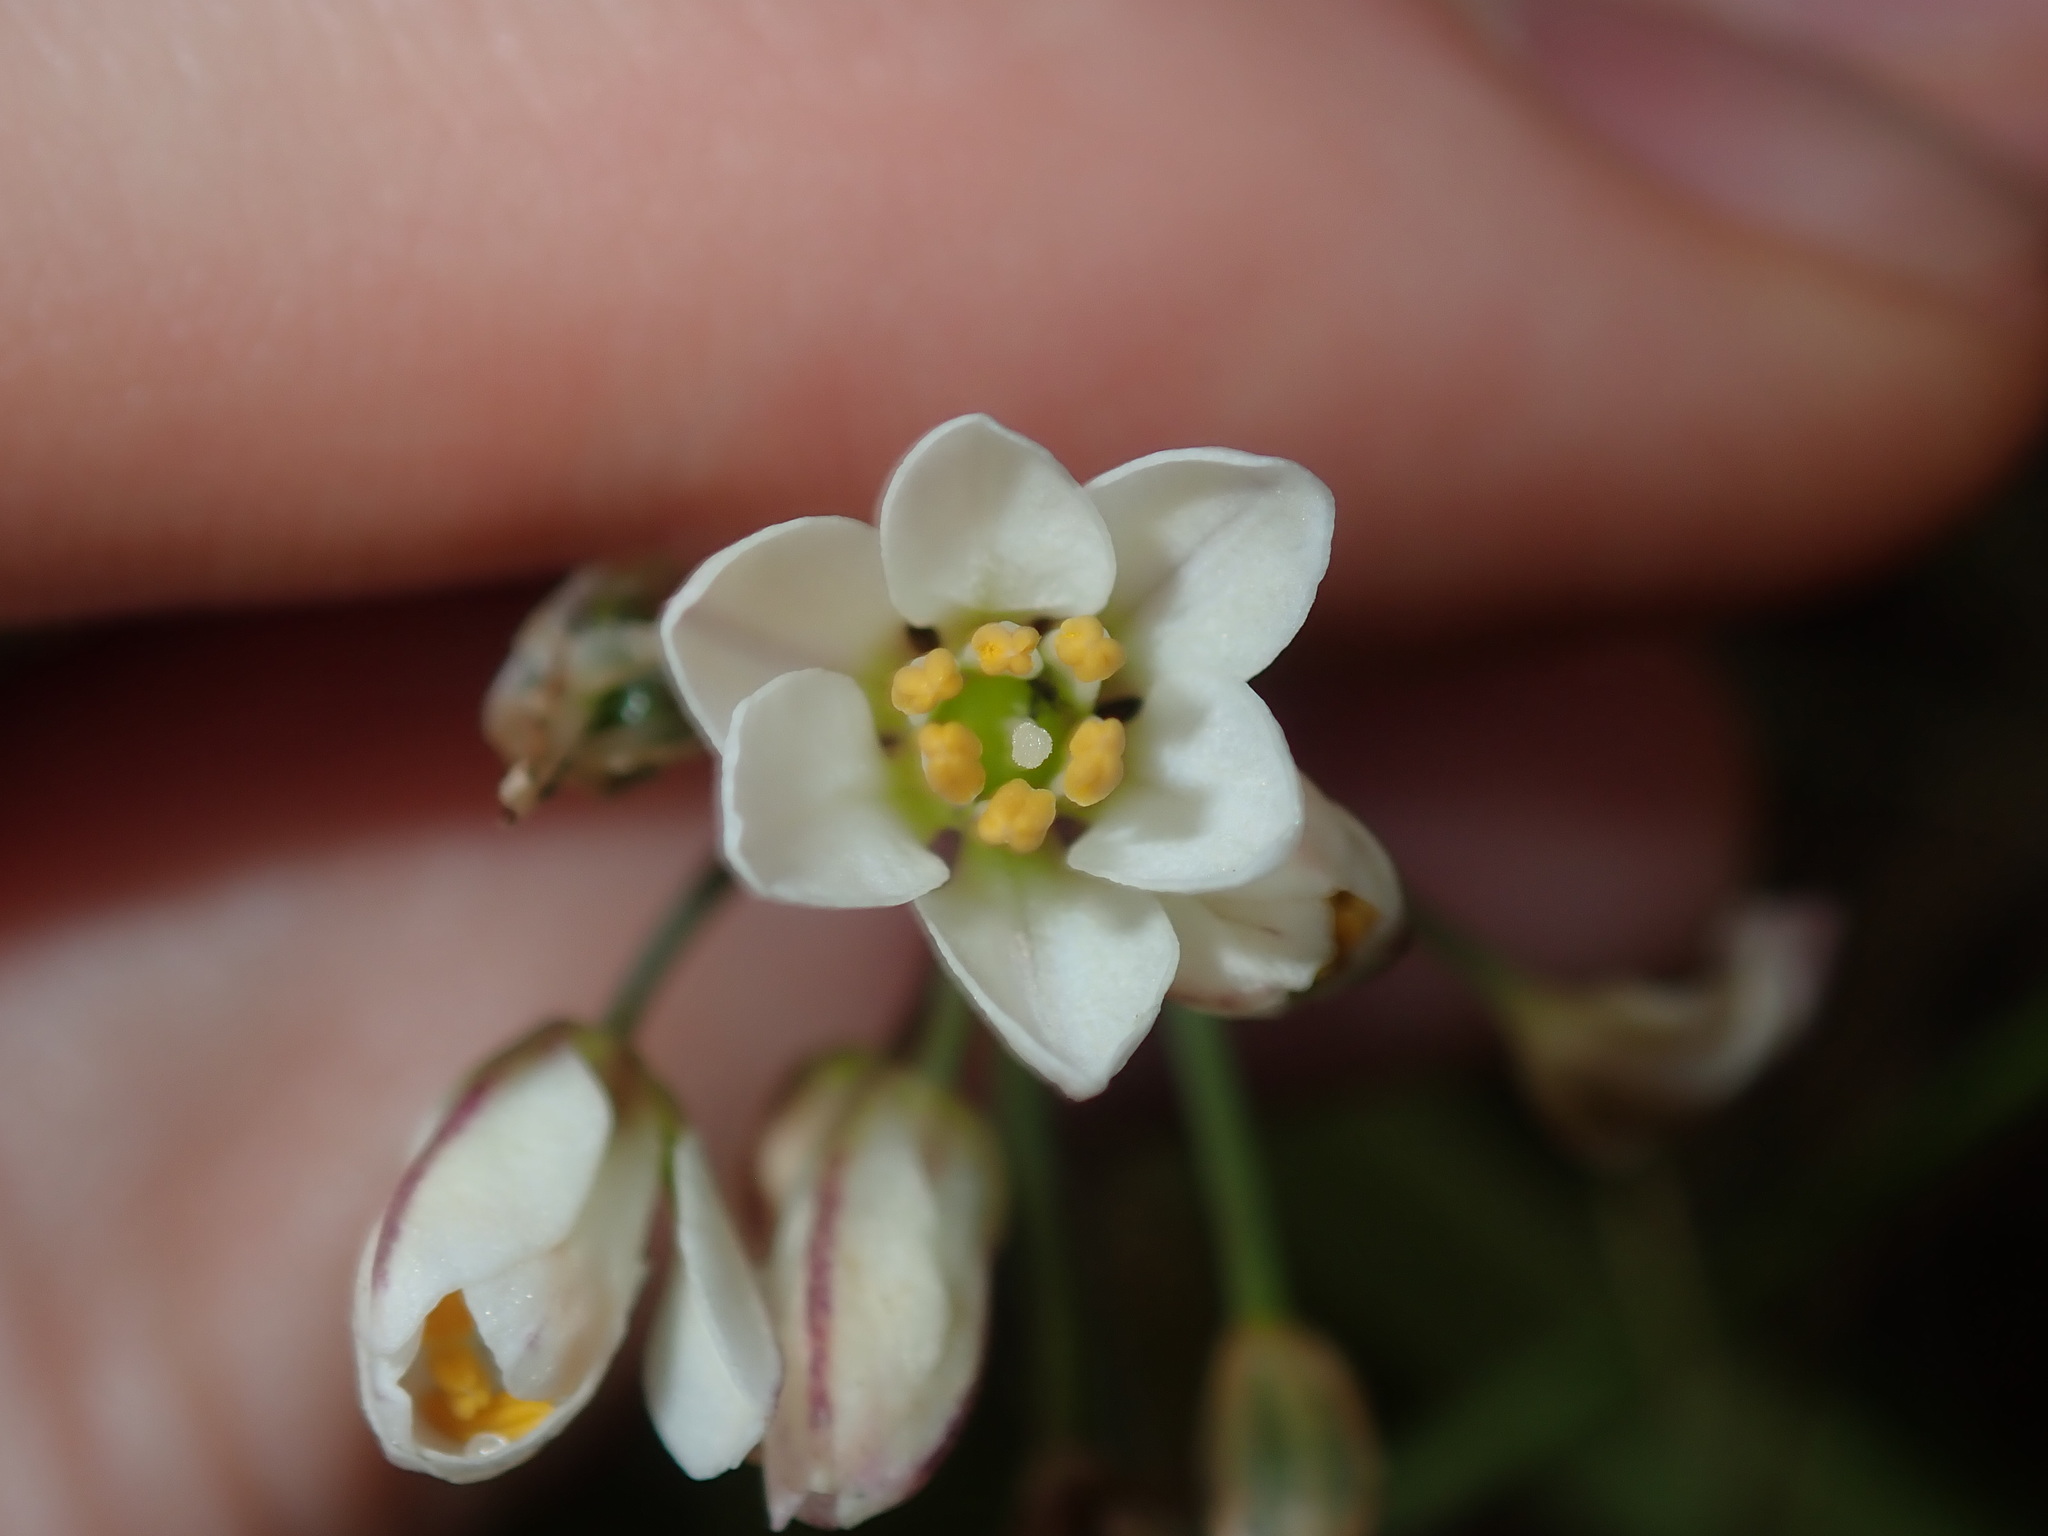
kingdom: Plantae
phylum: Tracheophyta
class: Liliopsida
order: Asparagales
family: Amaryllidaceae
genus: Nothoscordum
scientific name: Nothoscordum gracile
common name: Slender false garlic
